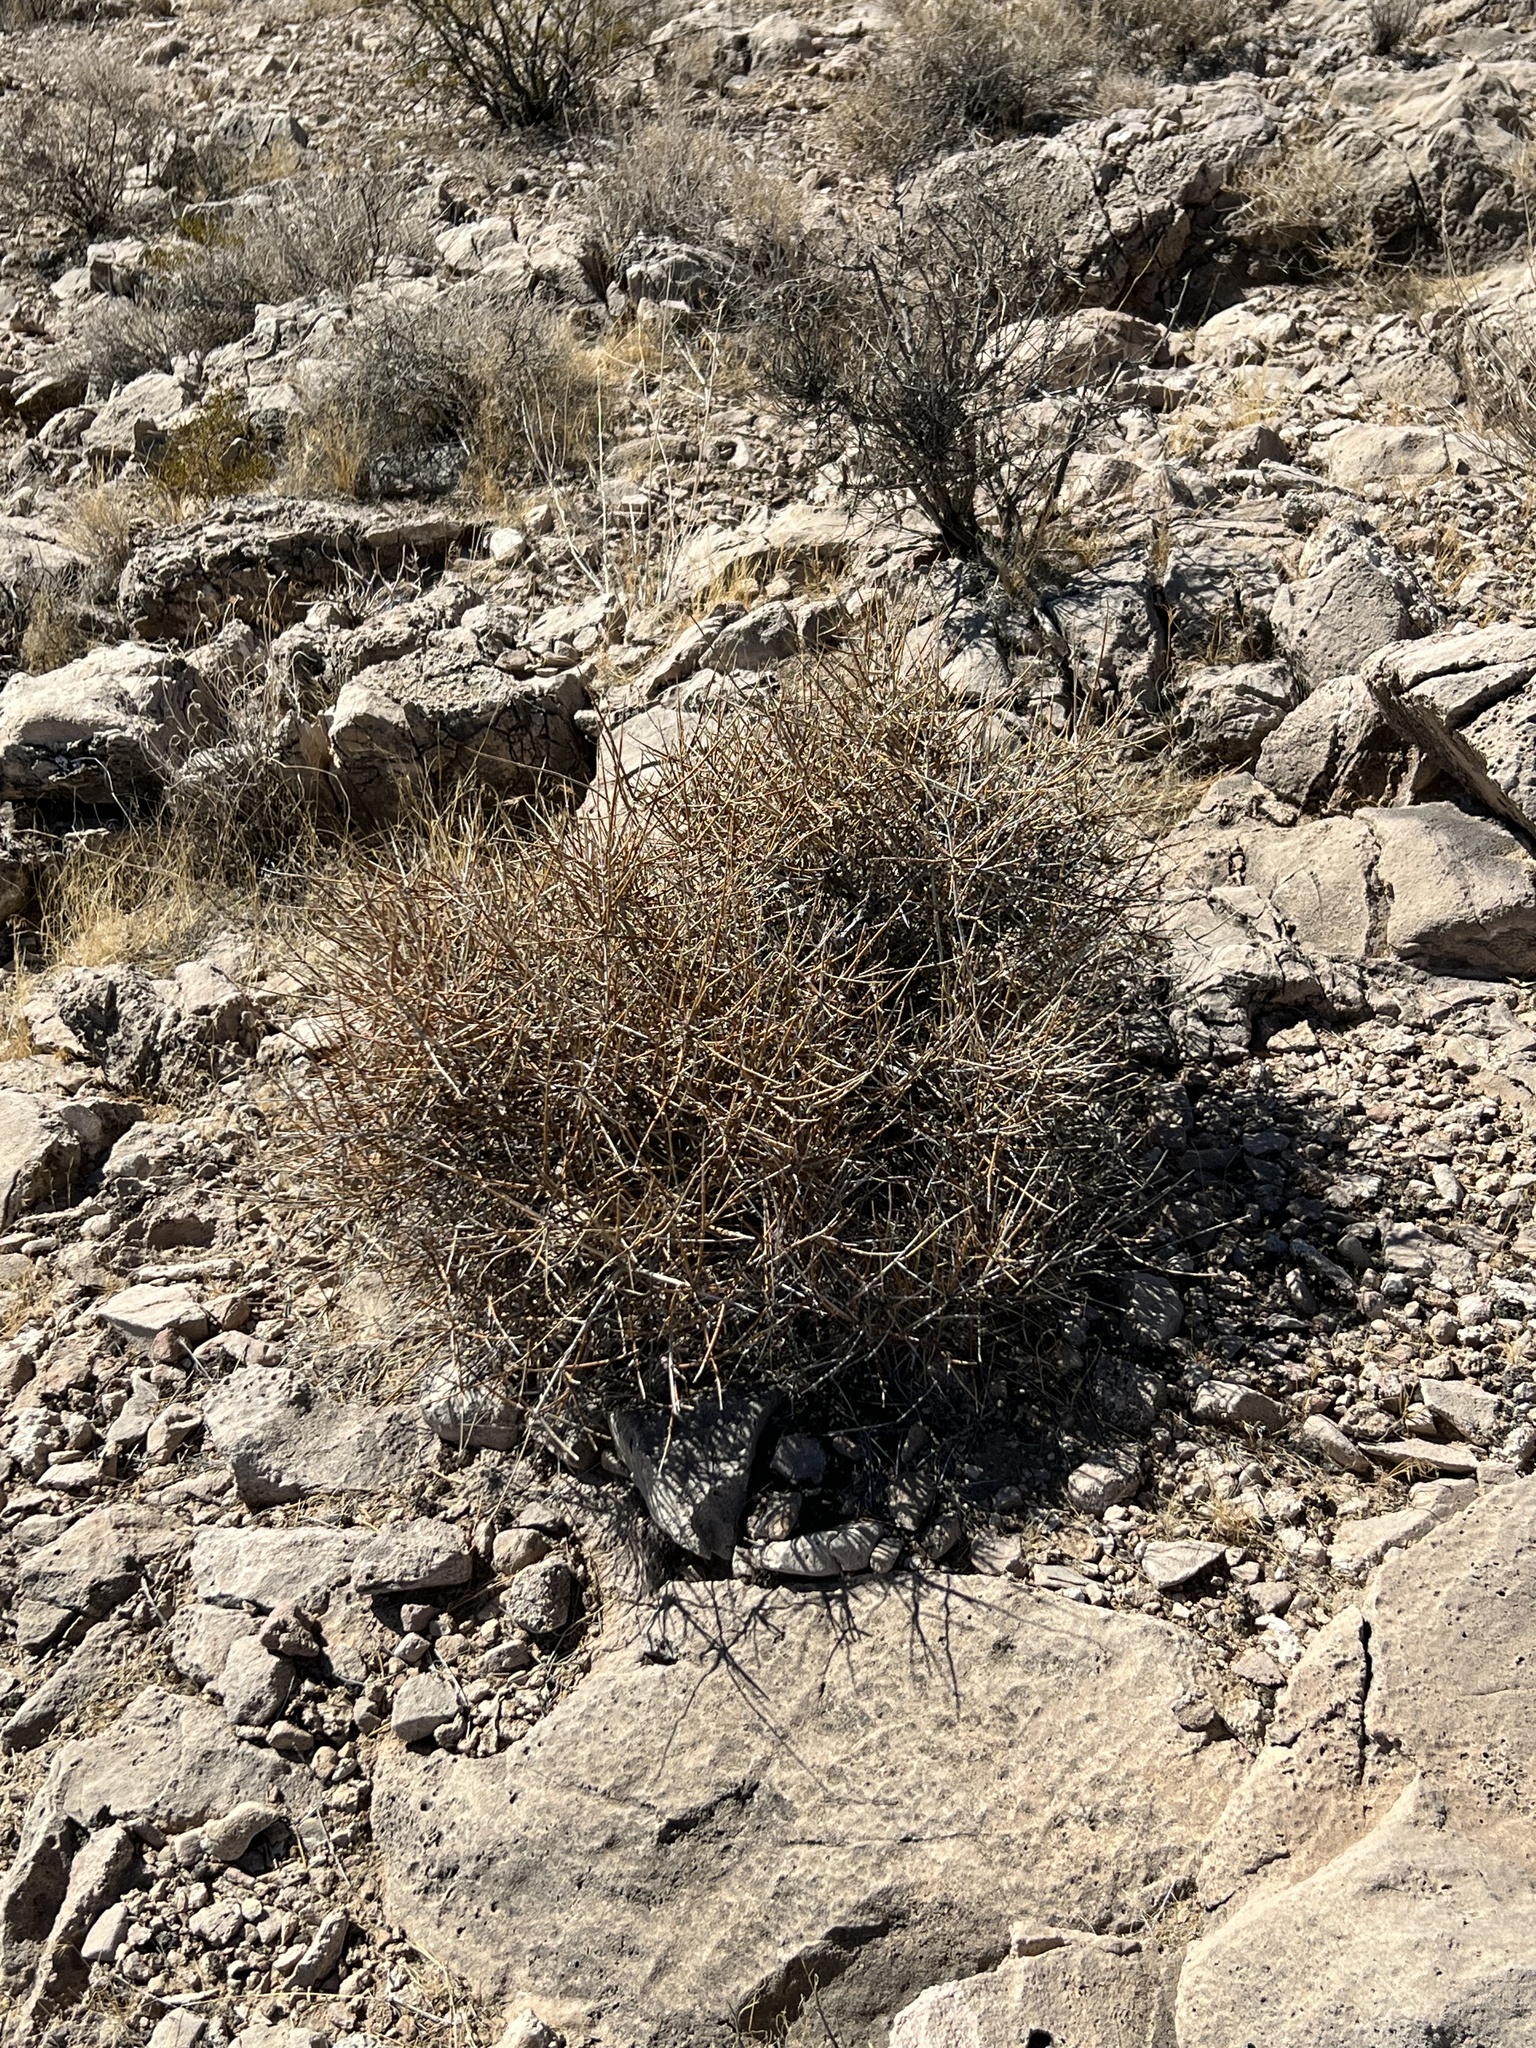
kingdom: Plantae
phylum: Tracheophyta
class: Gnetopsida
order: Ephedrales
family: Ephedraceae
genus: Ephedra
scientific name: Ephedra nevadensis
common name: Gray ephedra
